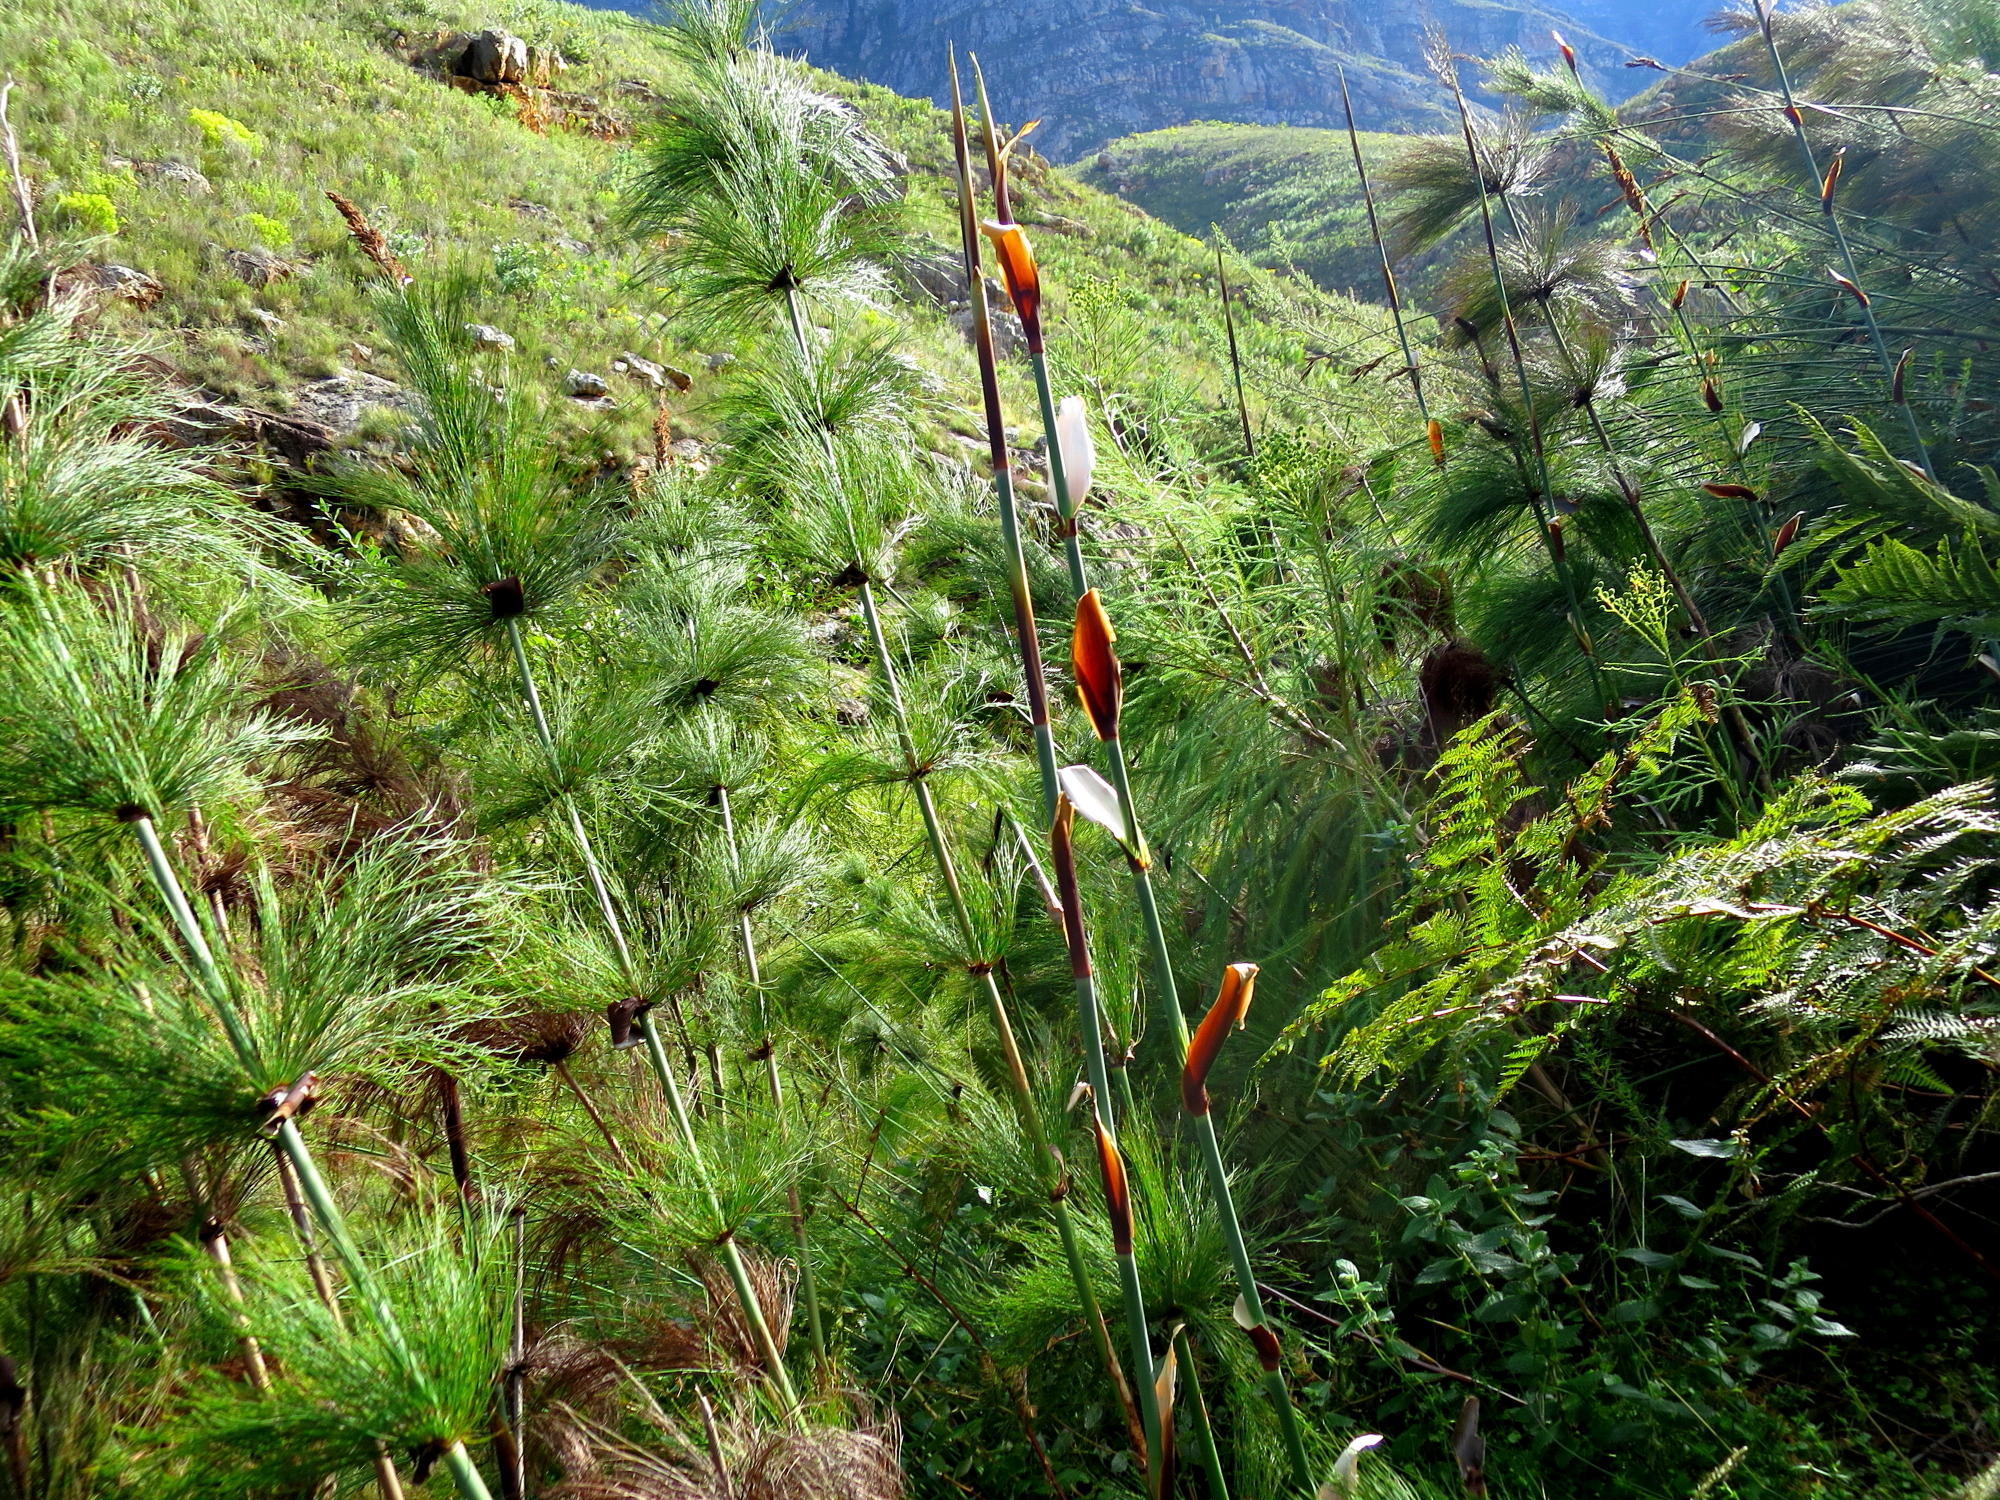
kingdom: Plantae
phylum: Tracheophyta
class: Liliopsida
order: Poales
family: Restionaceae
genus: Elegia
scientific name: Elegia capensis
